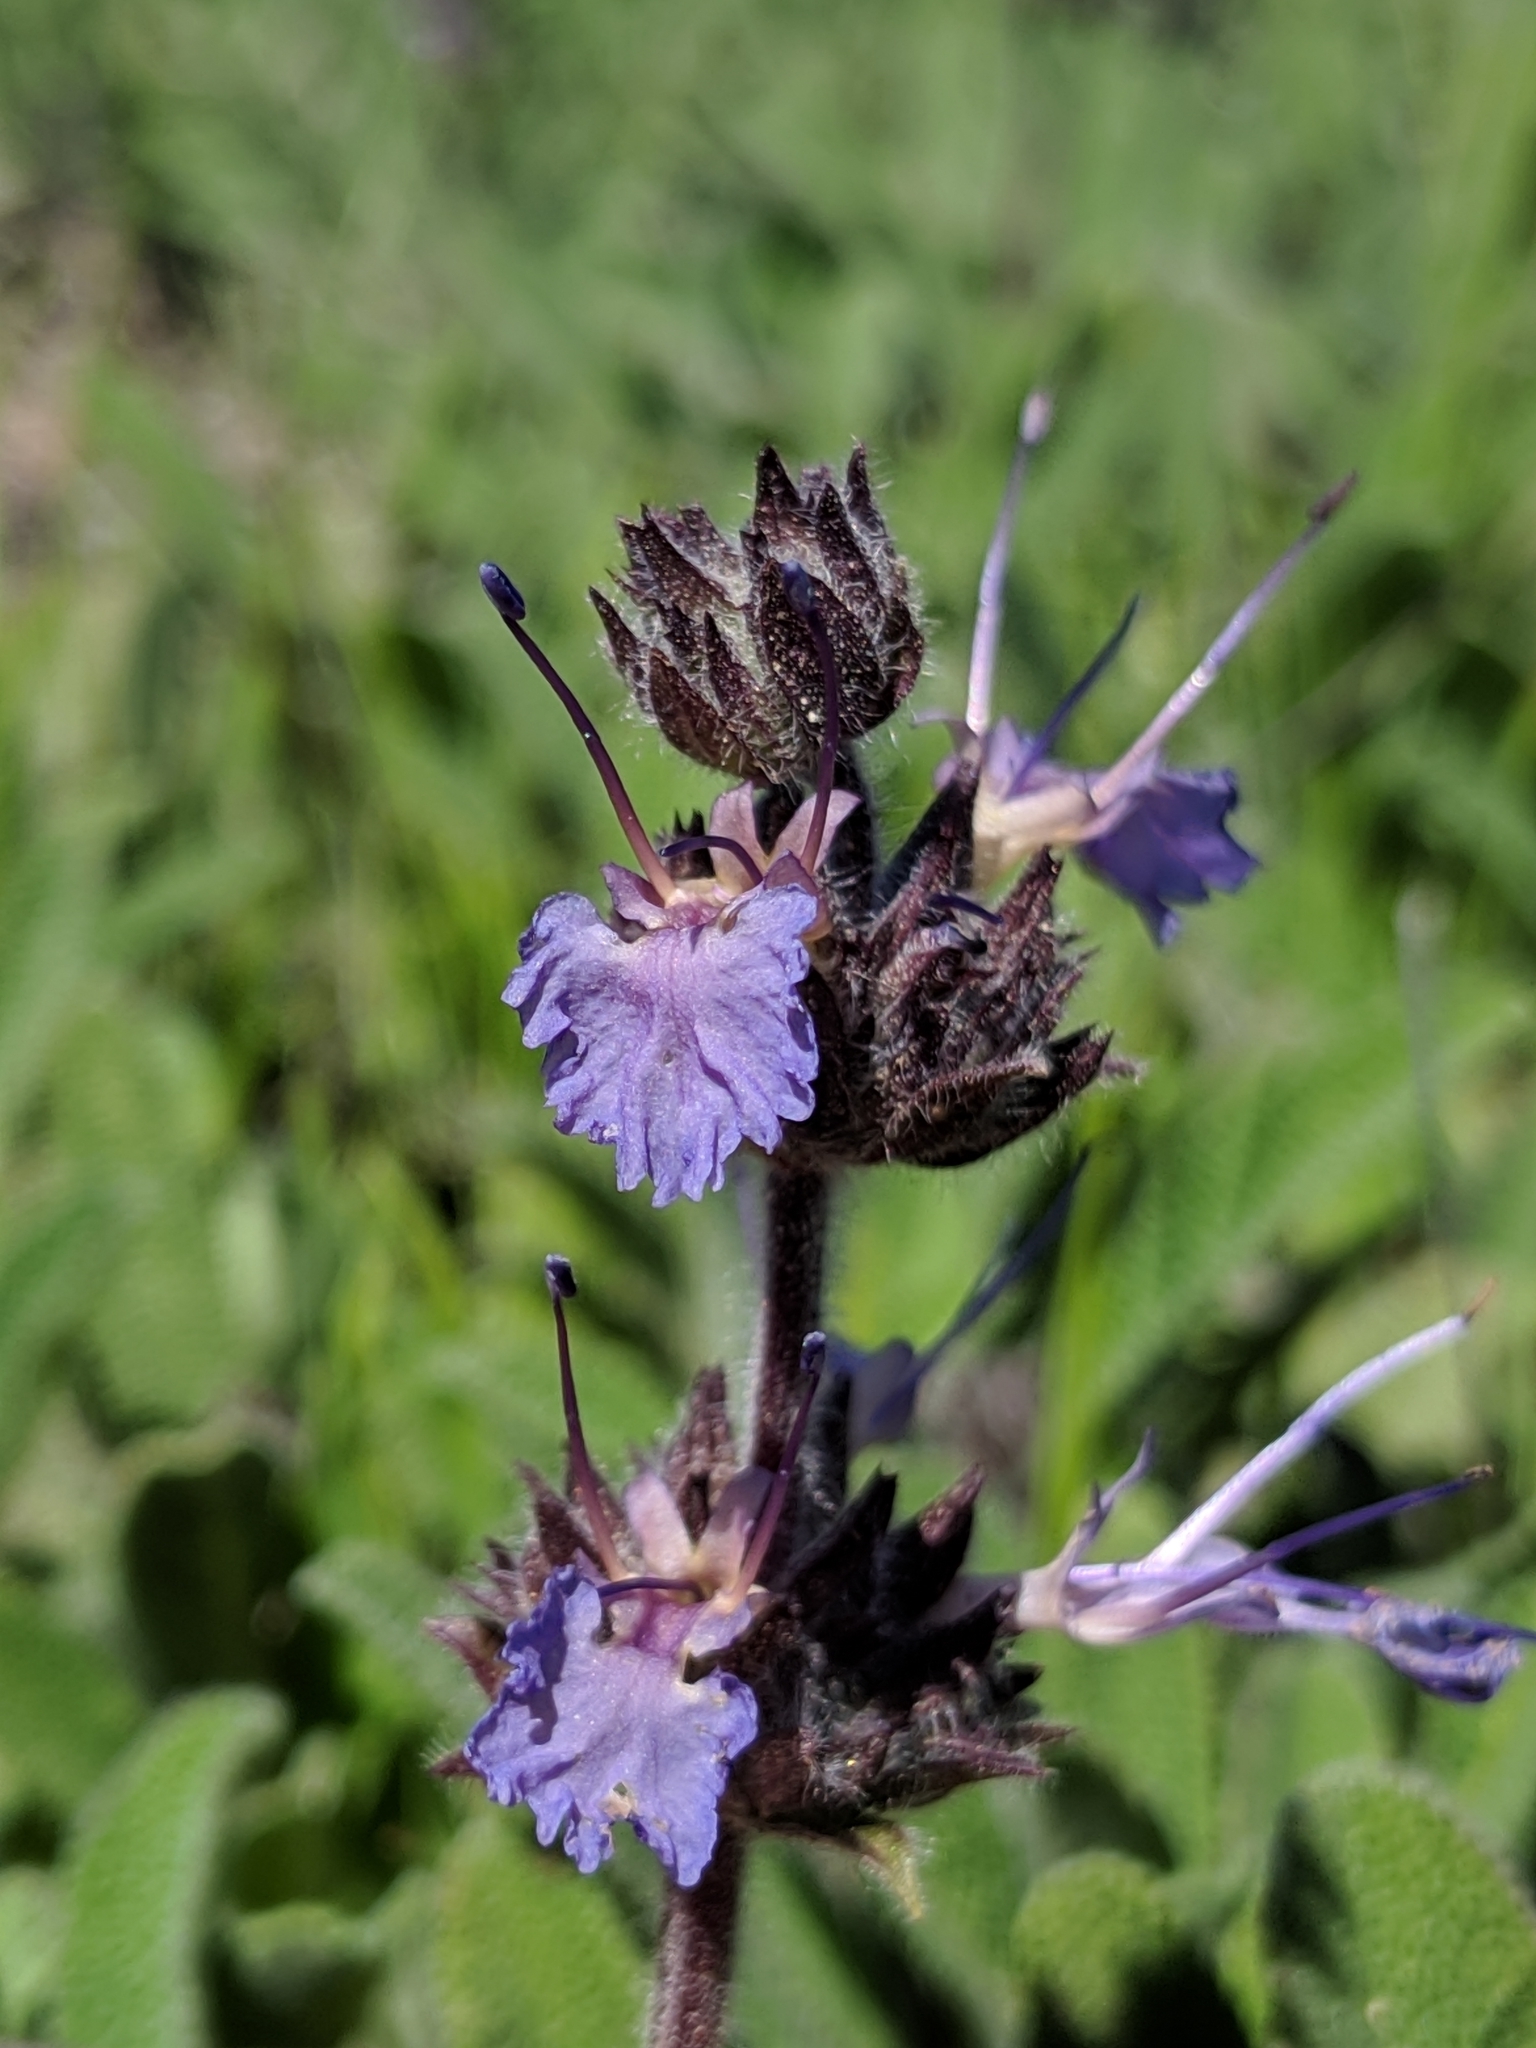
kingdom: Plantae
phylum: Tracheophyta
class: Magnoliopsida
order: Lamiales
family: Lamiaceae
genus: Salvia
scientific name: Salvia sonomensis
